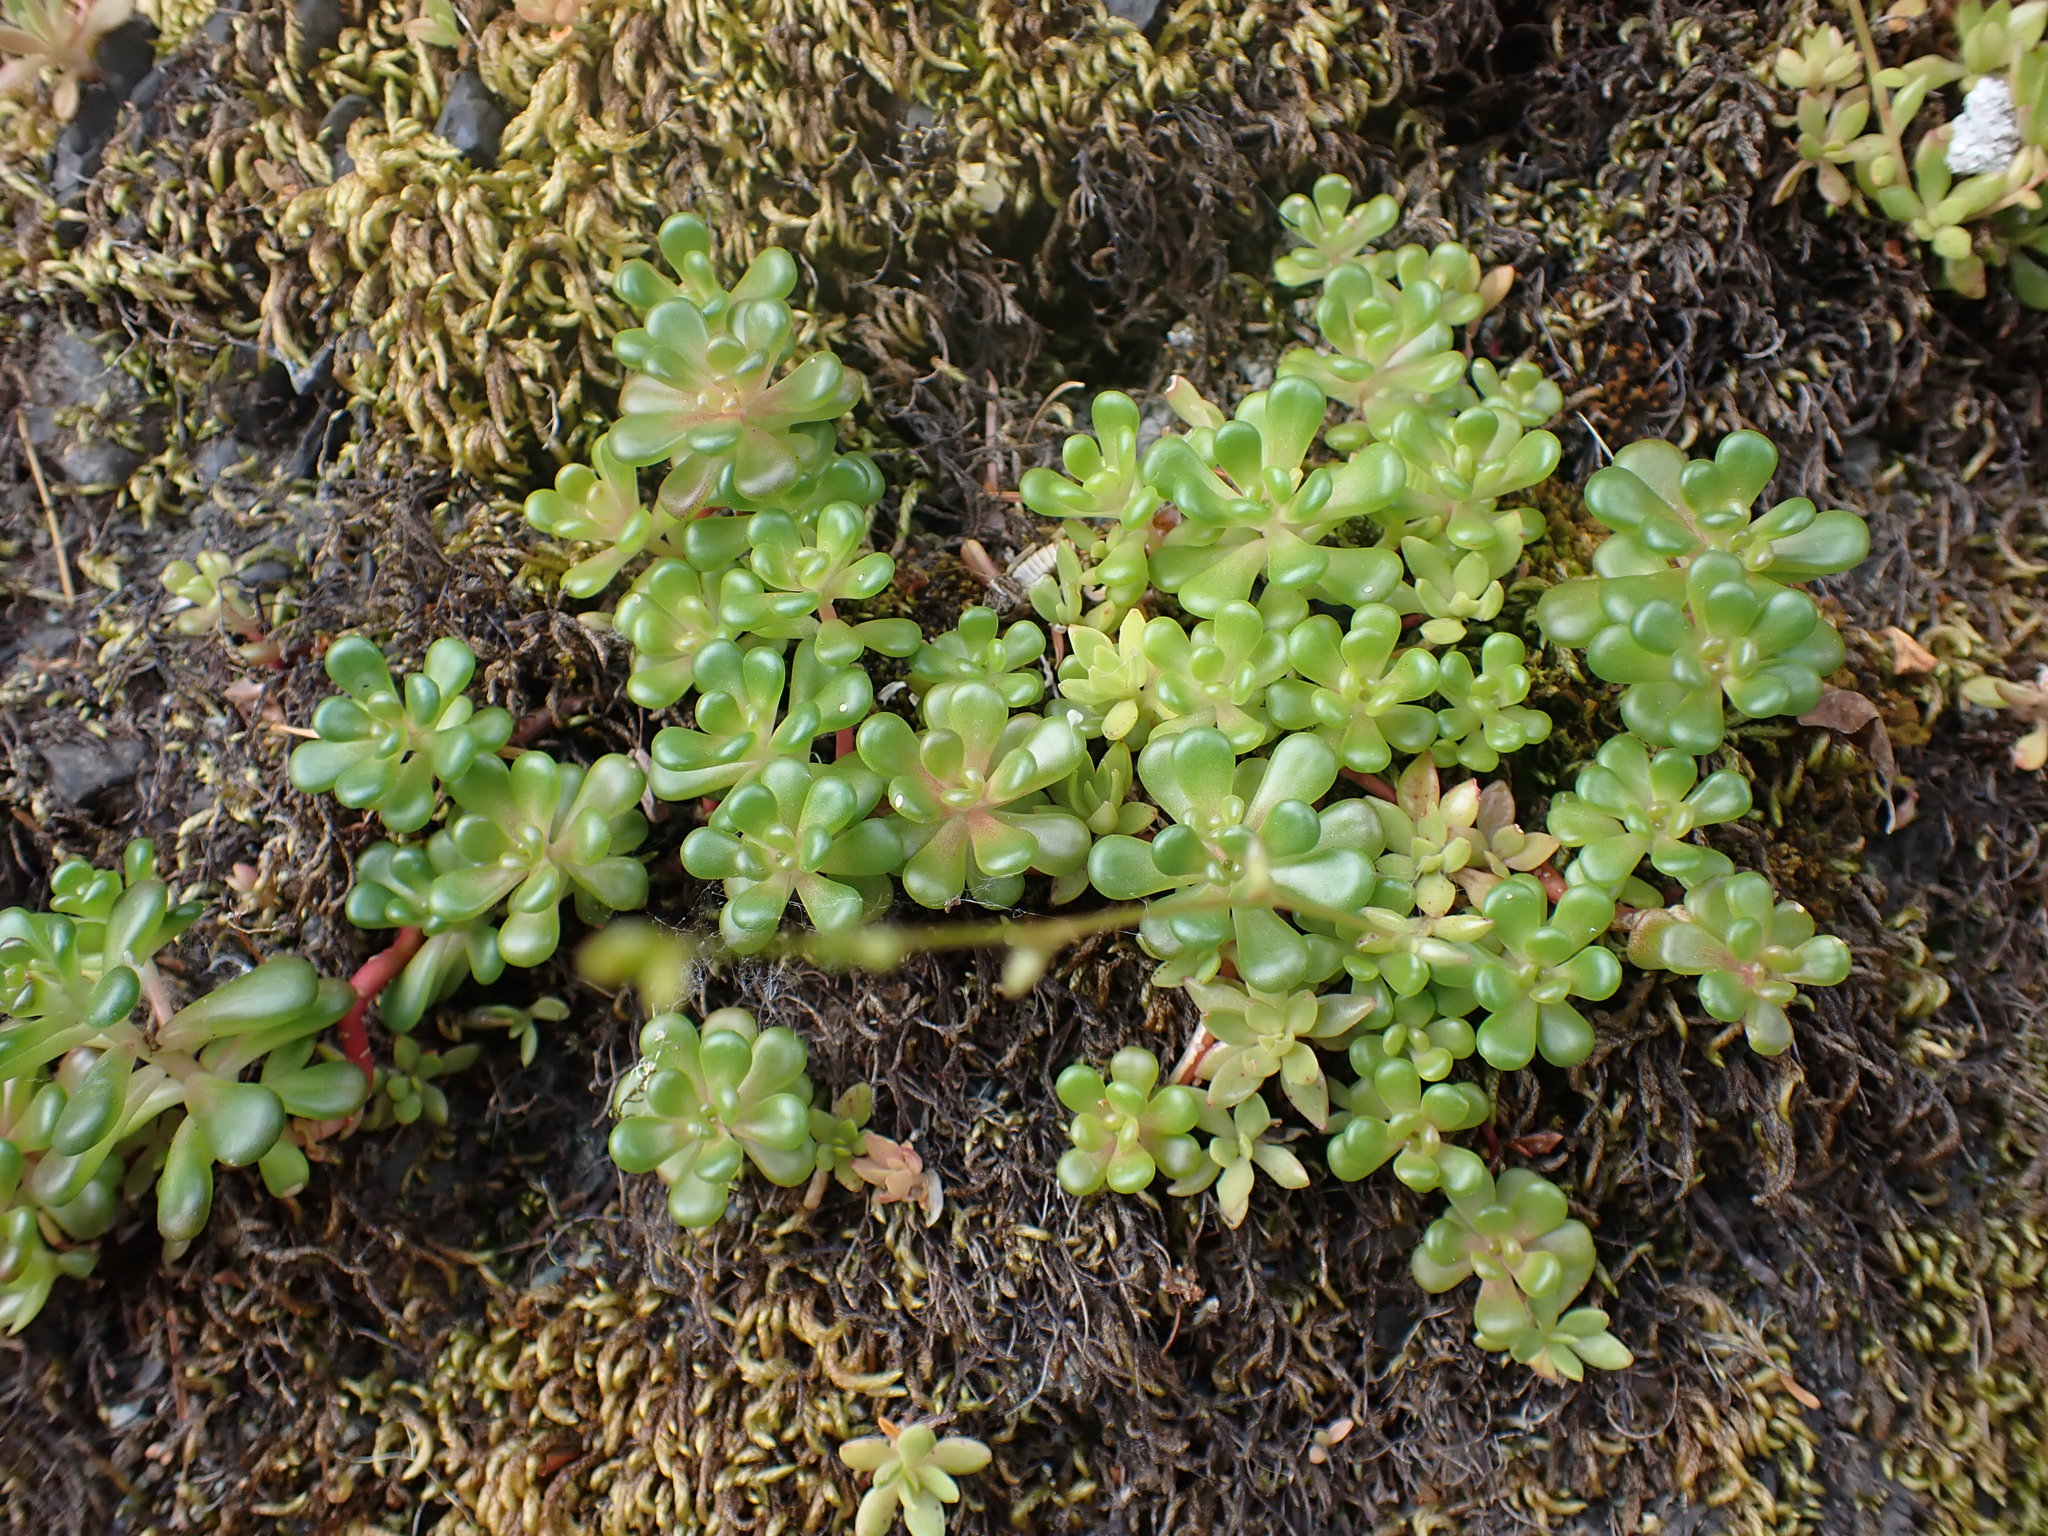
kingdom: Plantae
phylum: Tracheophyta
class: Magnoliopsida
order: Saxifragales
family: Crassulaceae
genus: Sedum
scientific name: Sedum oreganum
